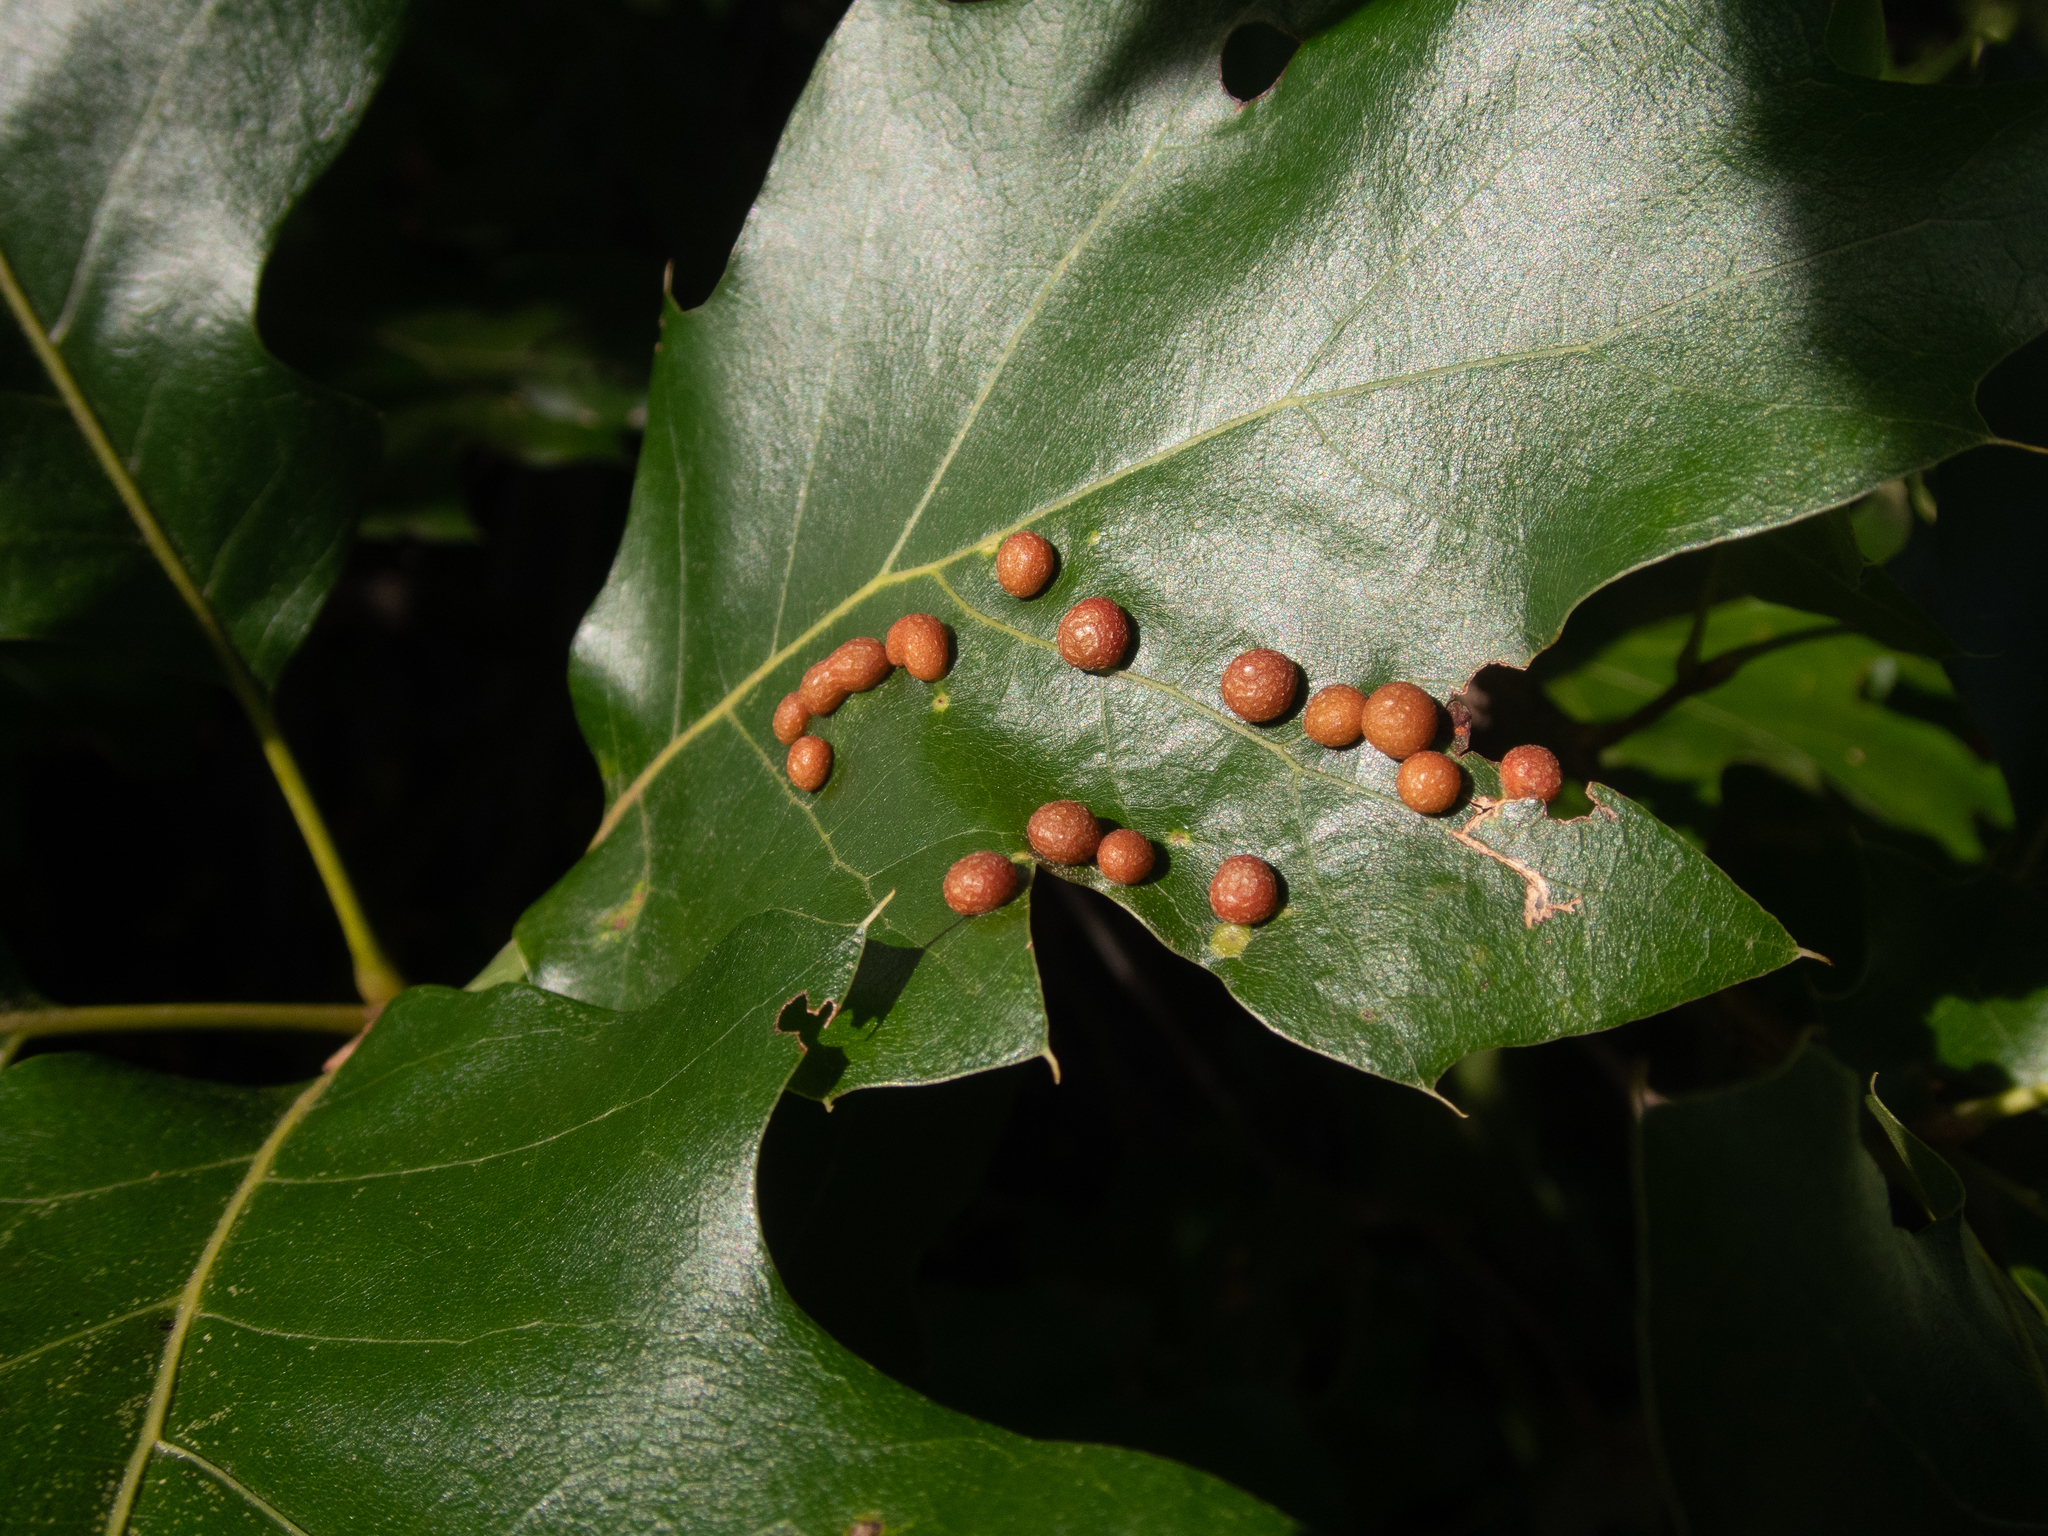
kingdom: Animalia
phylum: Arthropoda
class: Insecta
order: Diptera
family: Cecidomyiidae
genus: Polystepha
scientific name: Polystepha pilulae
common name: Oak leaf gall midge
